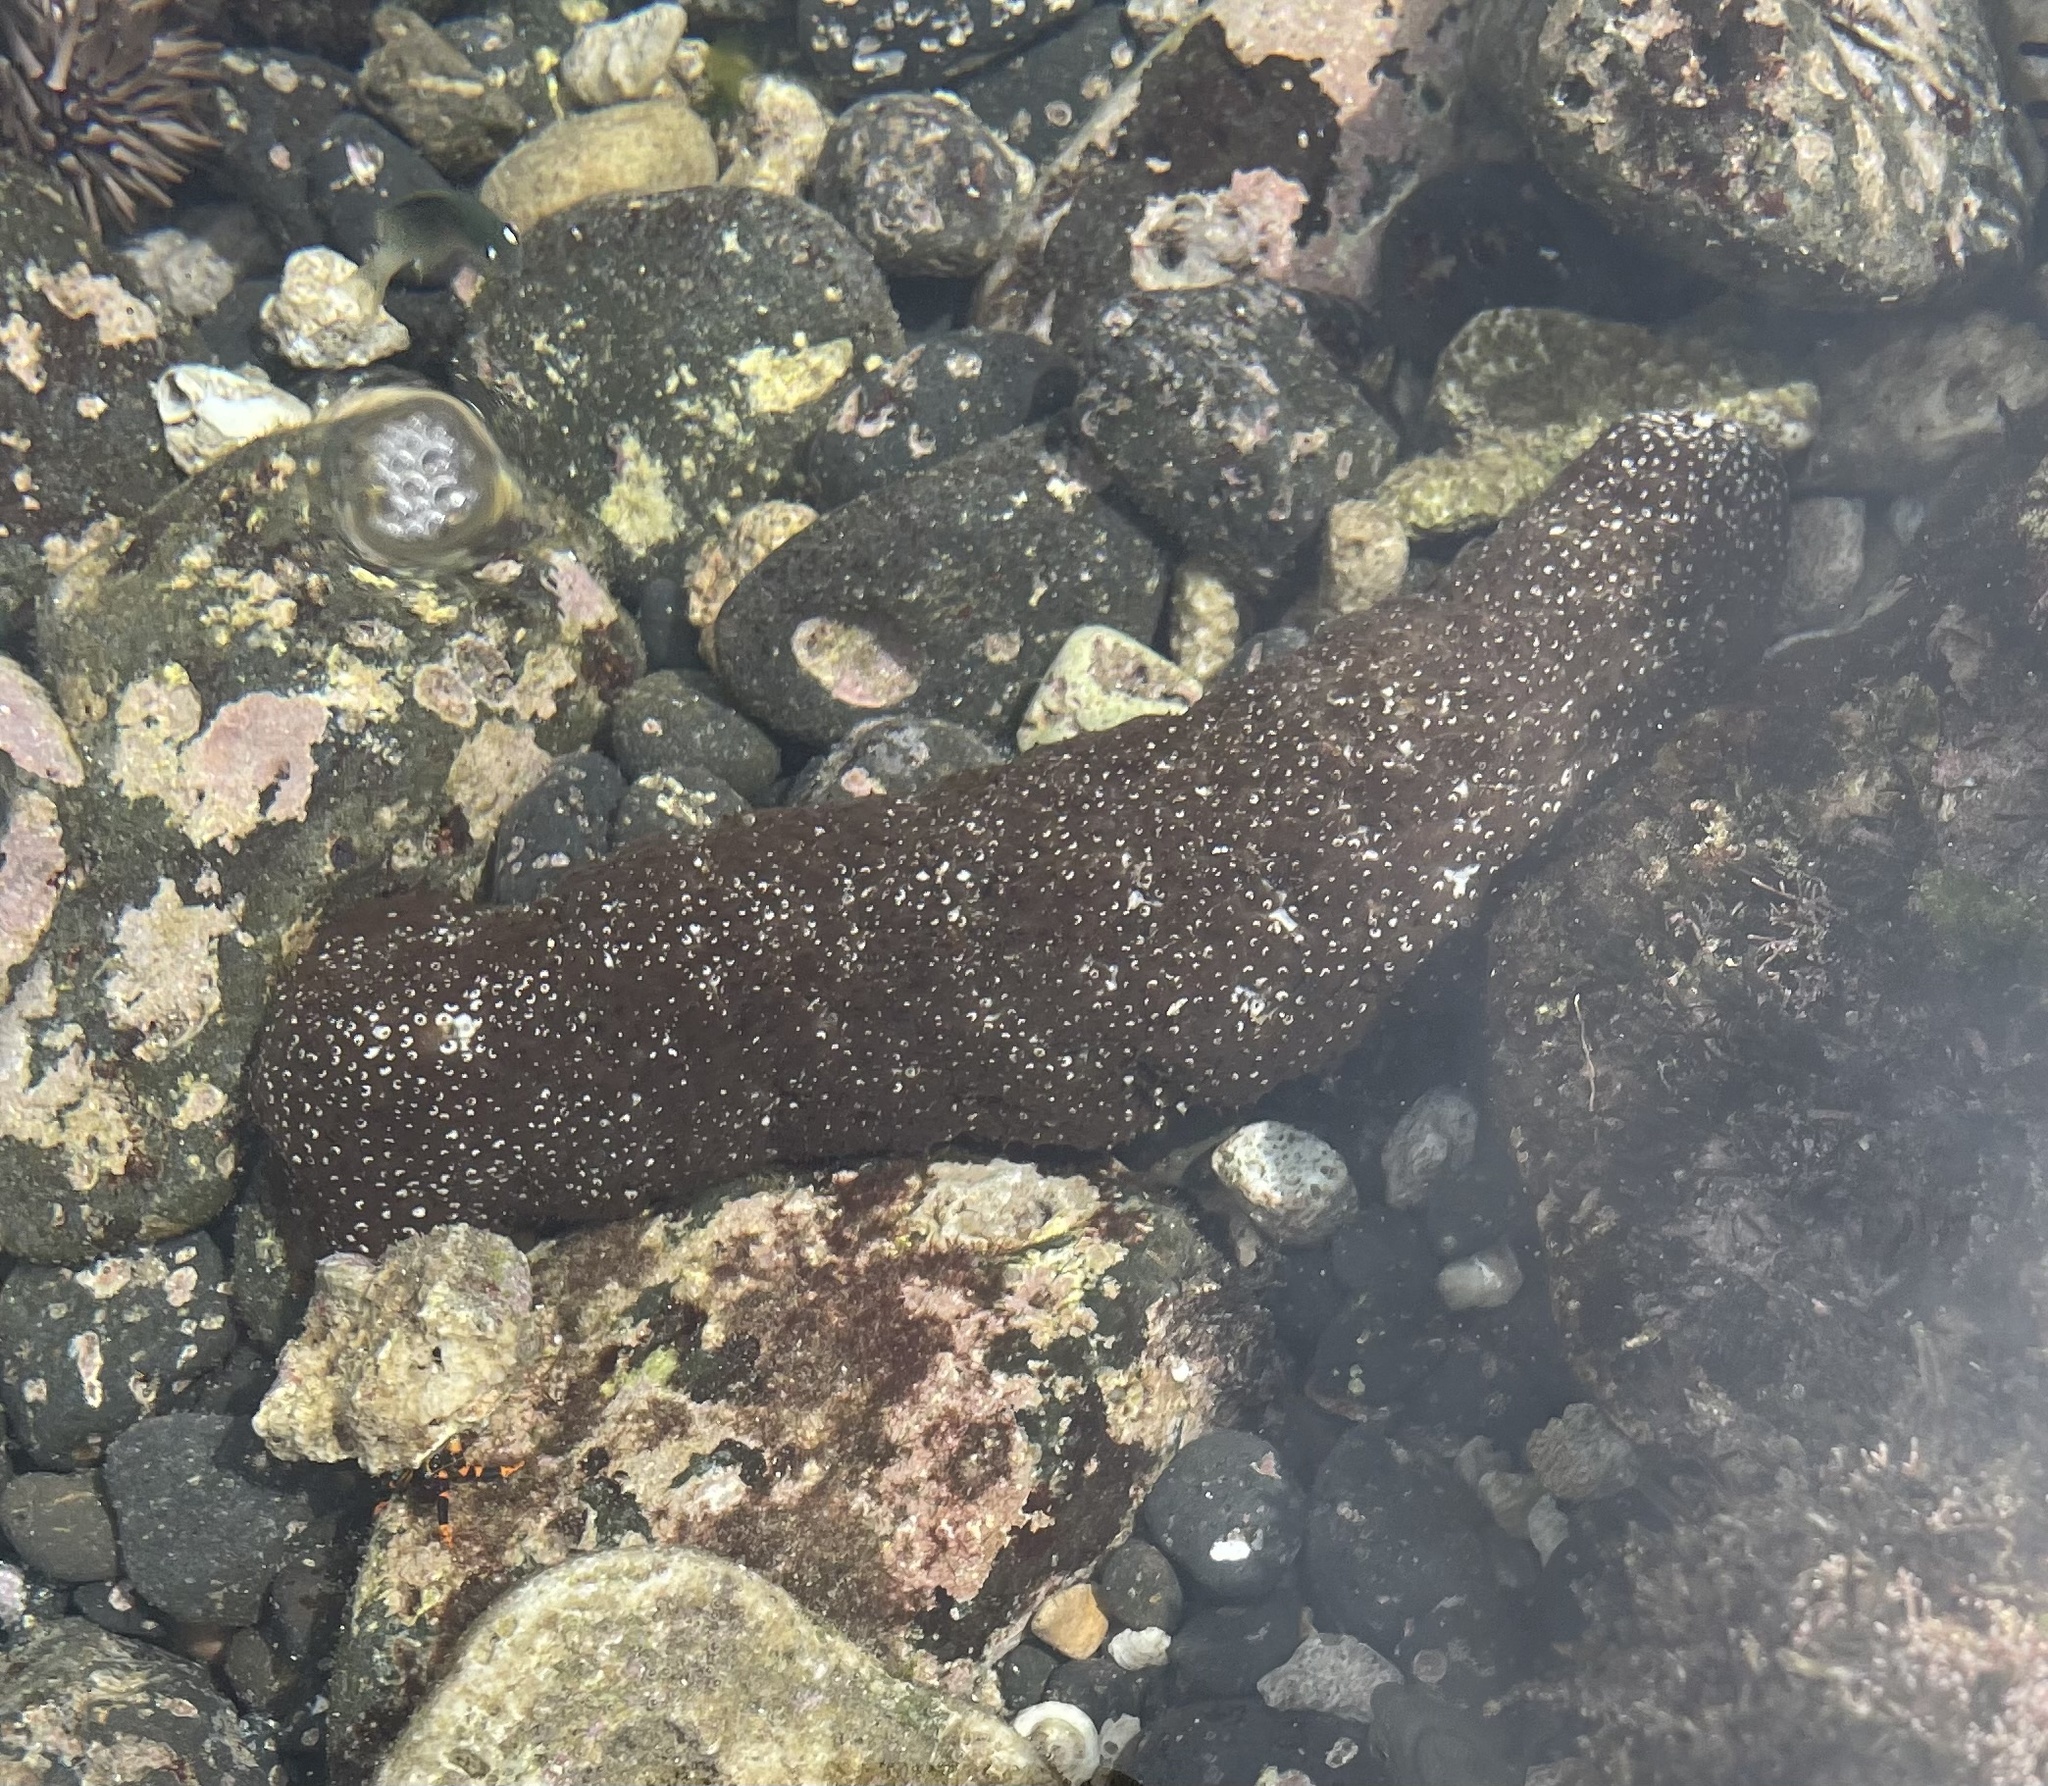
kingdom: Animalia
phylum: Echinodermata
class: Holothuroidea
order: Holothuriida
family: Holothuriidae
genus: Actinopyga
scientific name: Actinopyga varians
